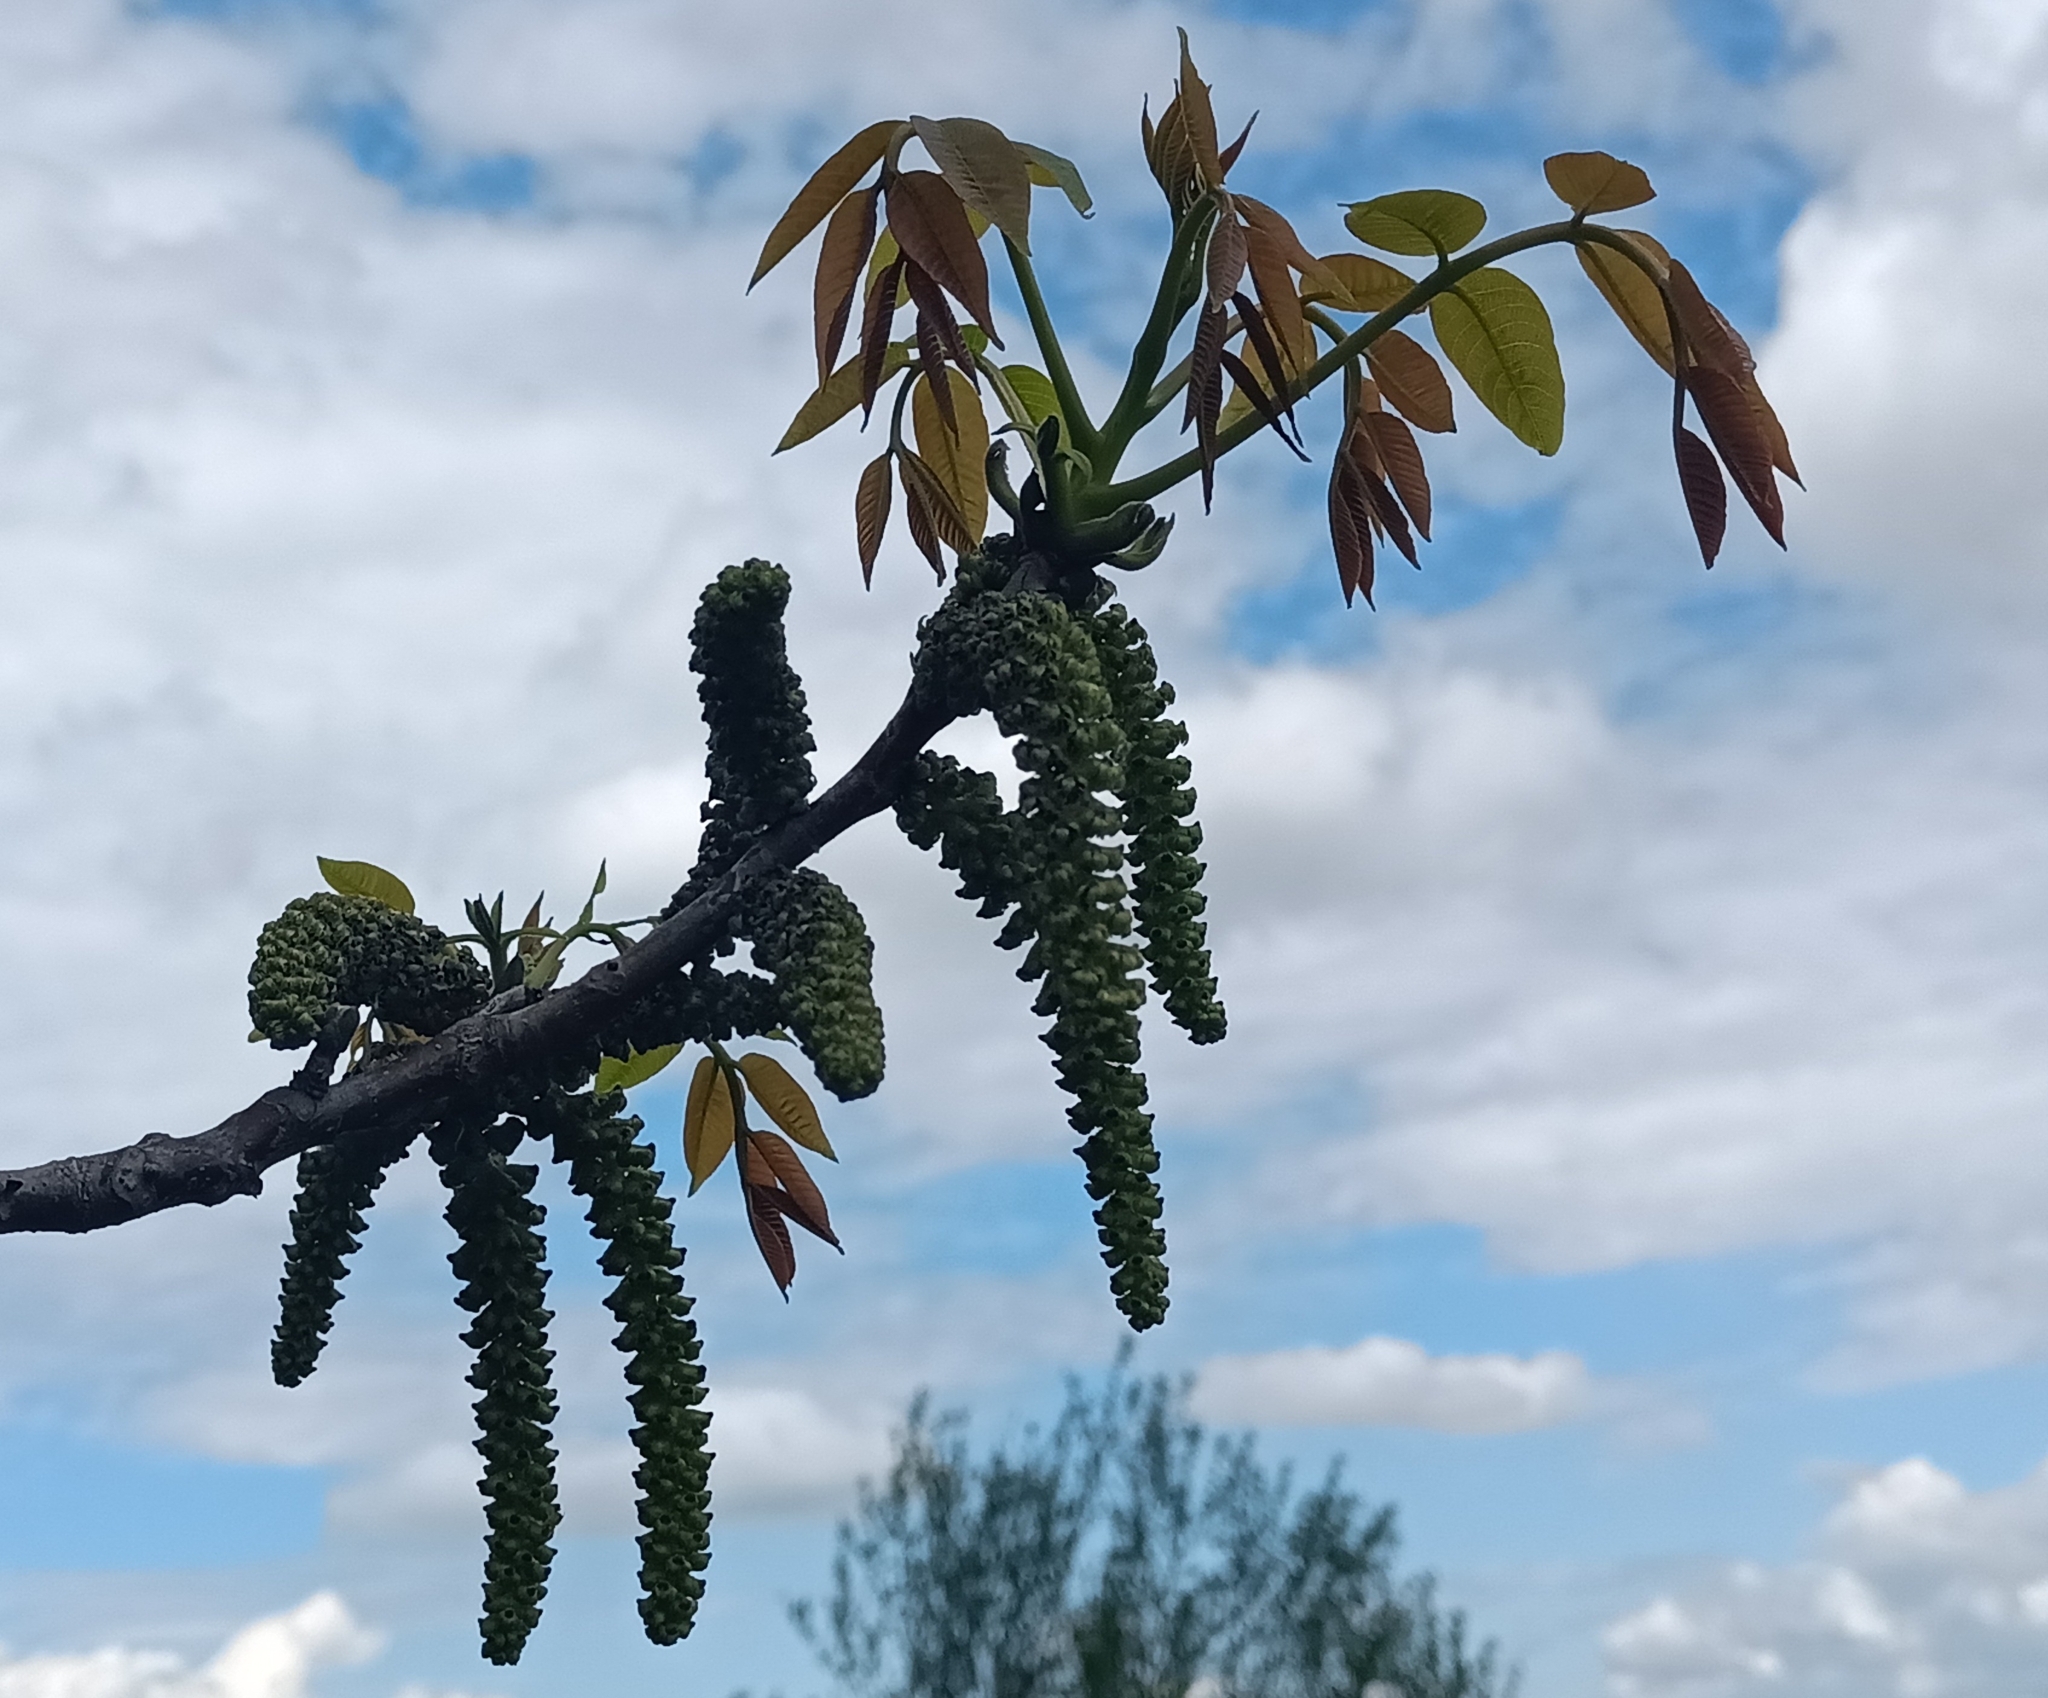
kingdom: Plantae
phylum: Tracheophyta
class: Magnoliopsida
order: Fagales
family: Juglandaceae
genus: Juglans
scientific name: Juglans regia
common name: Walnut
